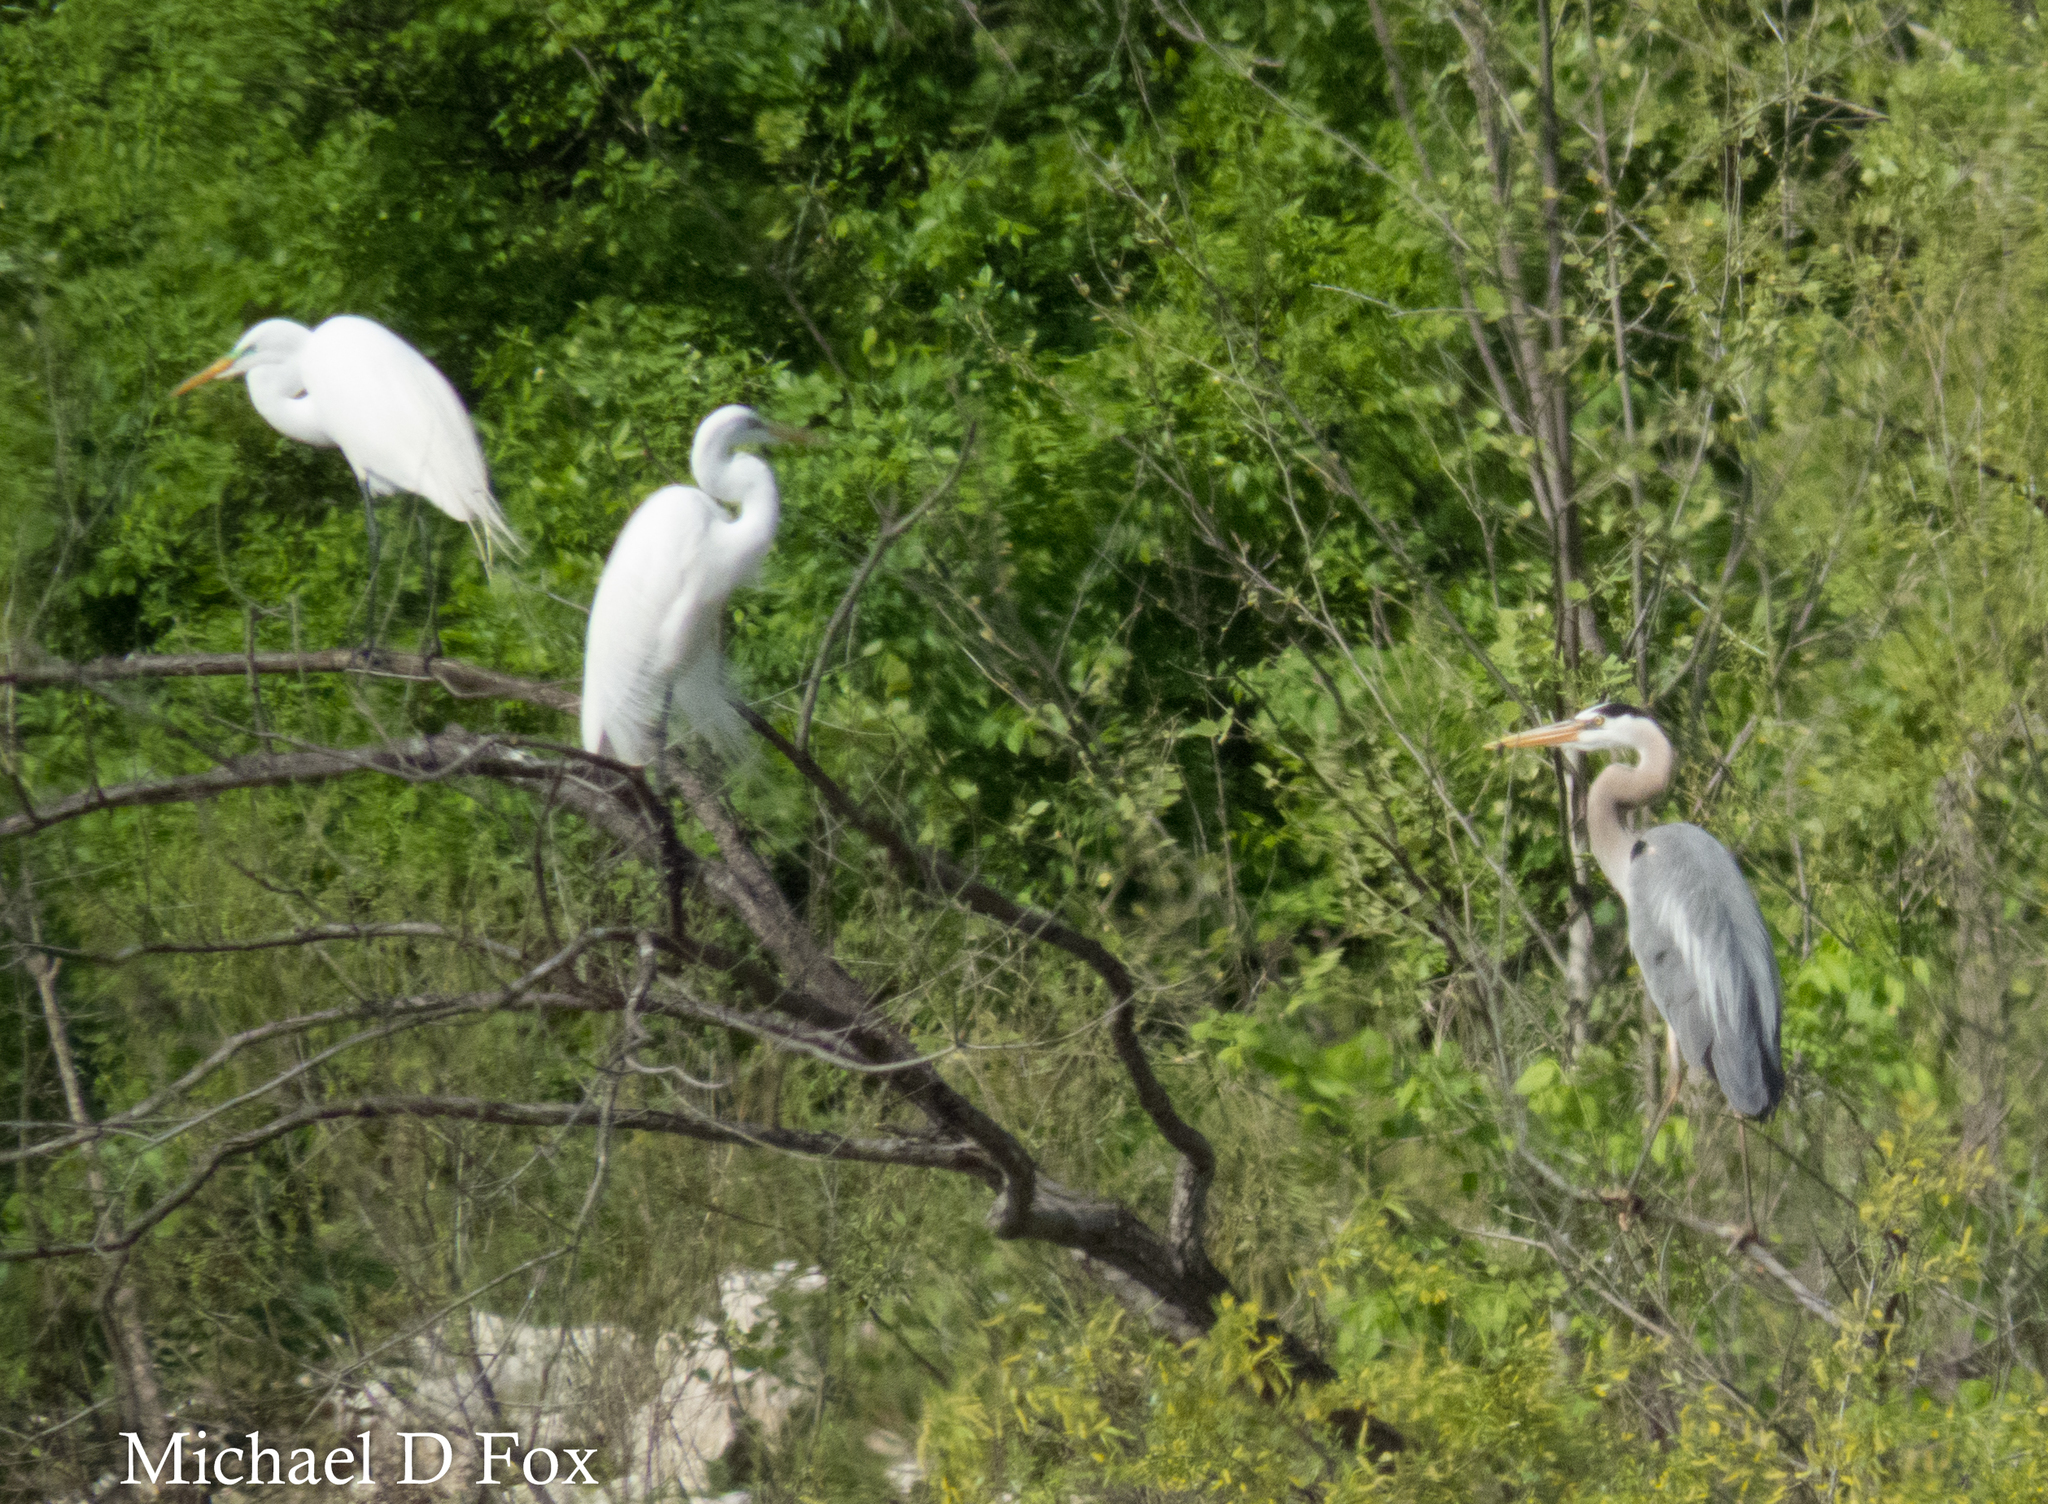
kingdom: Animalia
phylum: Chordata
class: Aves
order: Pelecaniformes
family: Ardeidae
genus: Ardea
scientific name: Ardea alba
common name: Great egret
